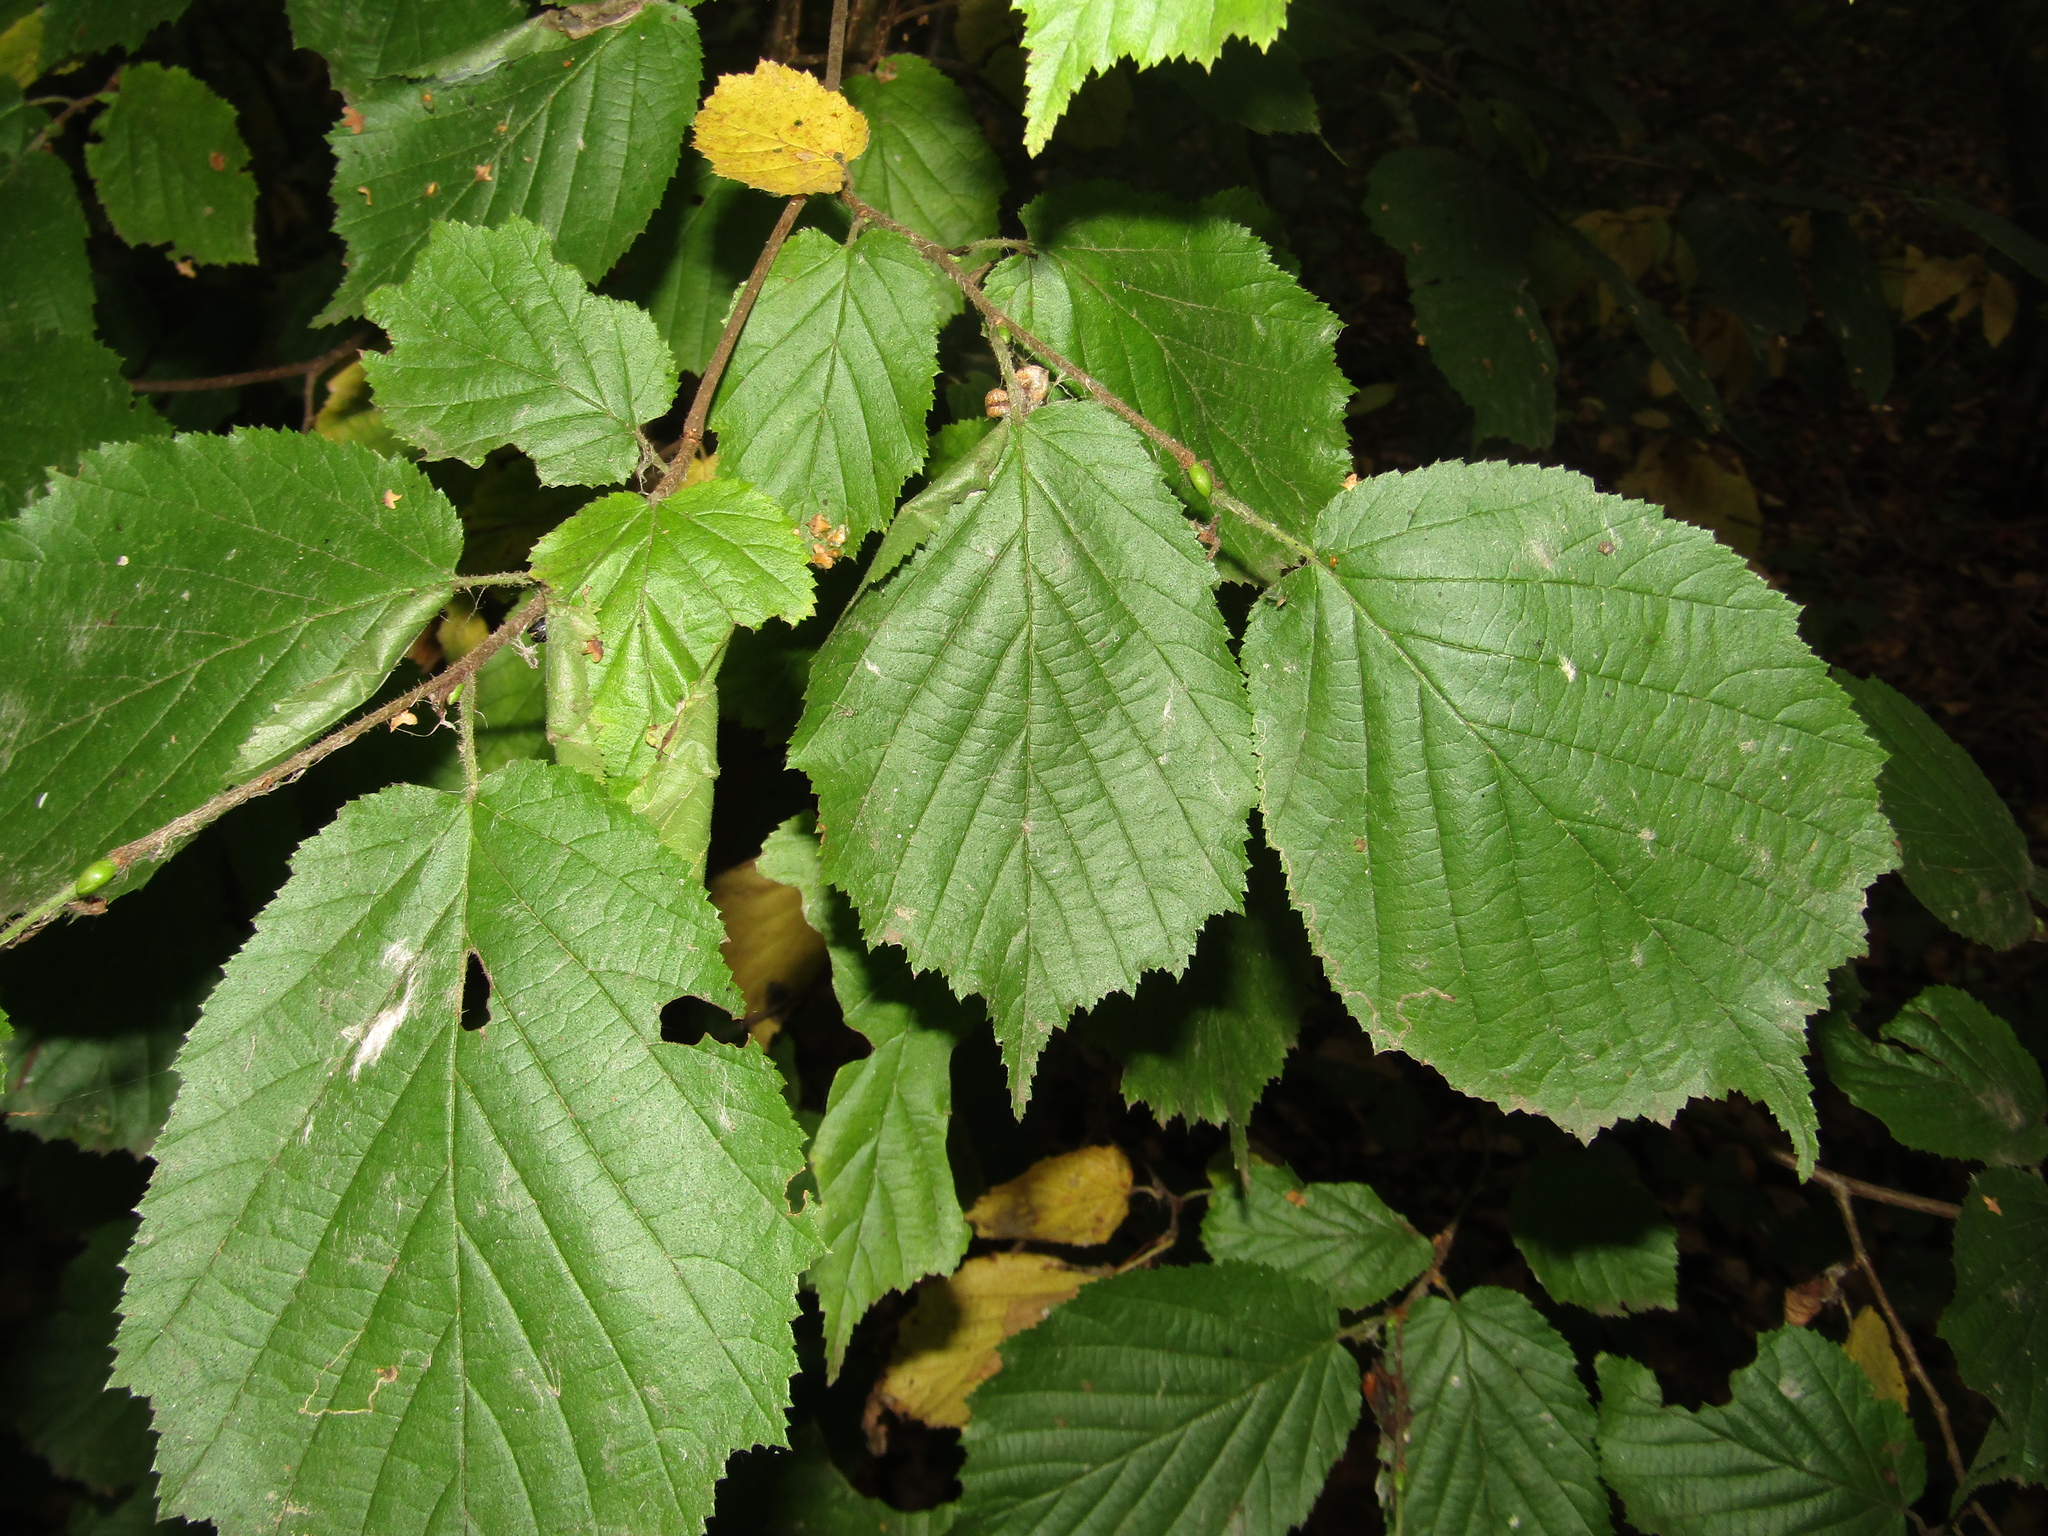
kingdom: Plantae
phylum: Tracheophyta
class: Magnoliopsida
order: Fagales
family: Betulaceae
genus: Corylus
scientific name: Corylus avellana
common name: European hazel
